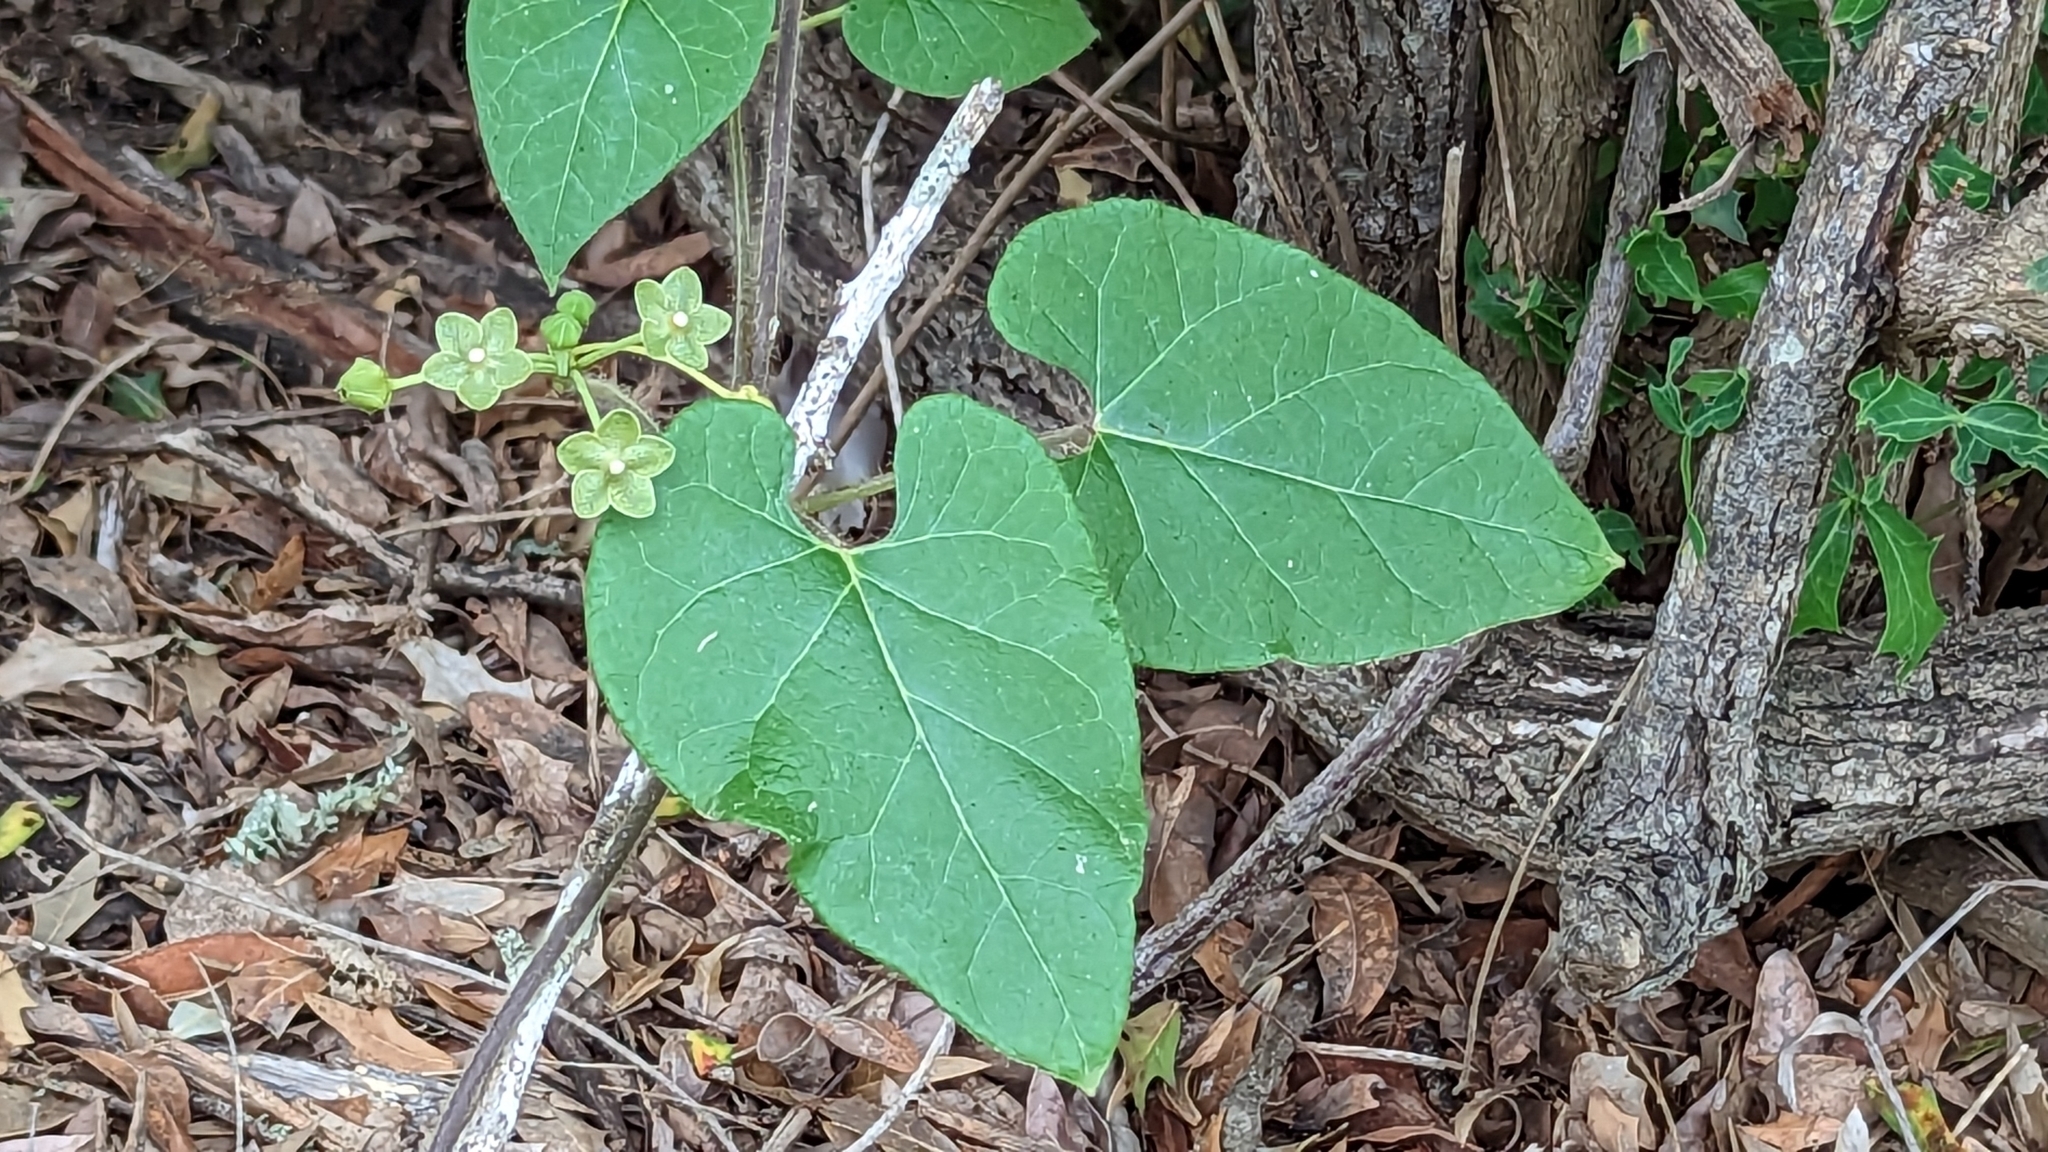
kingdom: Plantae
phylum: Tracheophyta
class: Magnoliopsida
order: Gentianales
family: Apocynaceae
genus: Dictyanthus
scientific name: Dictyanthus reticulatus
